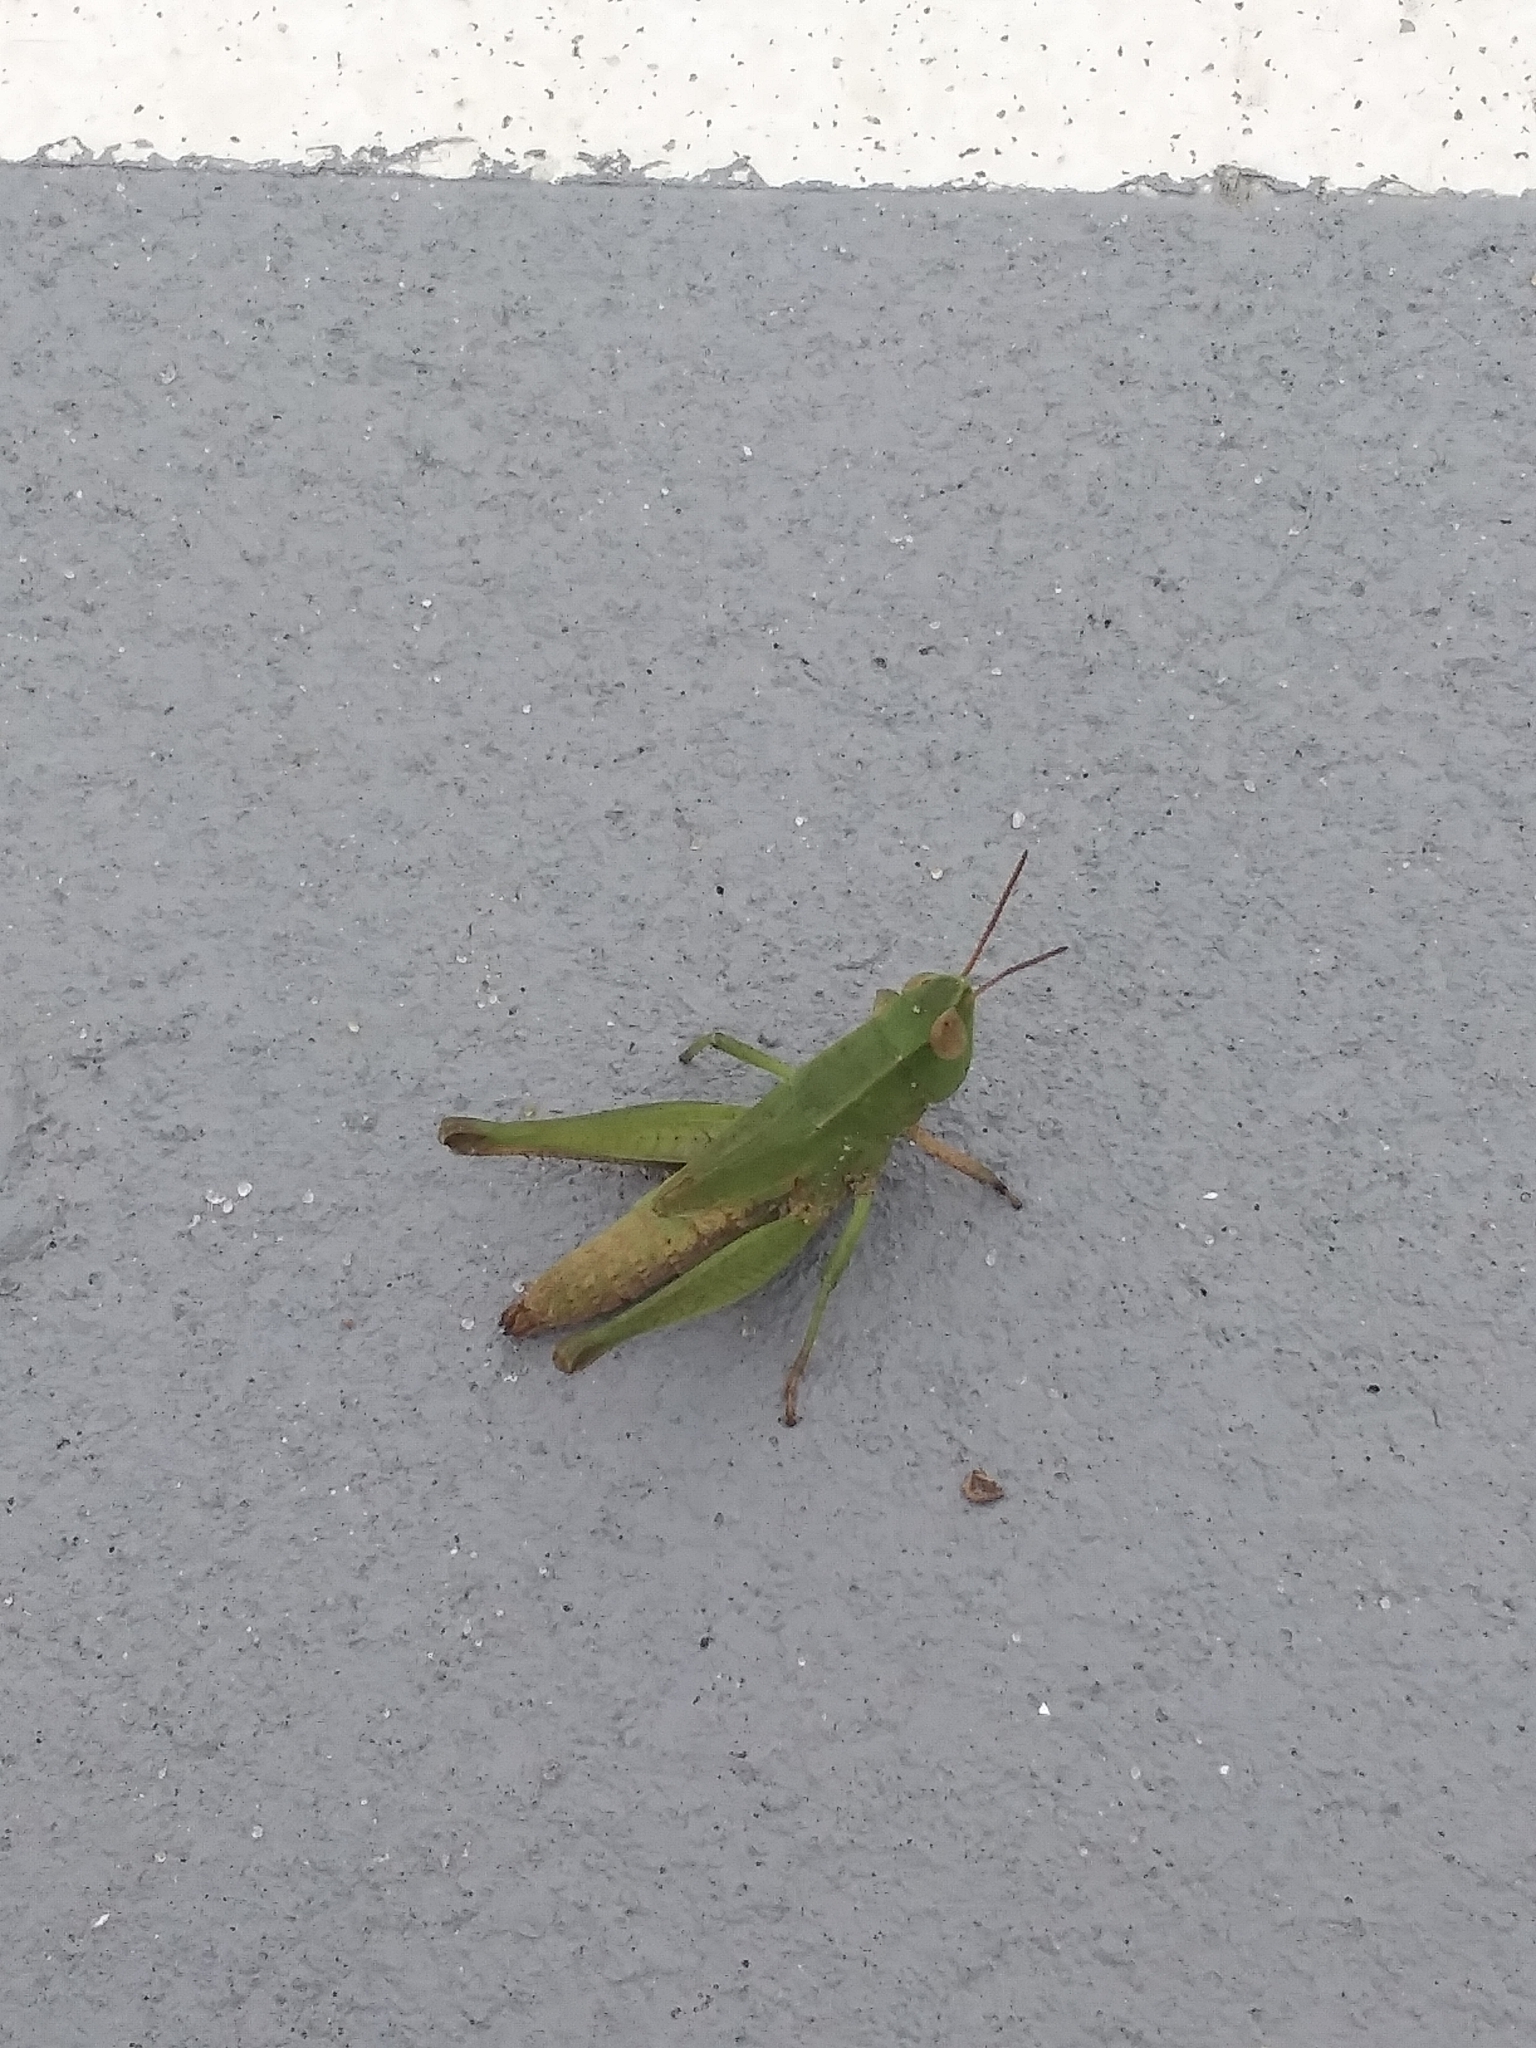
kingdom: Animalia
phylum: Arthropoda
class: Insecta
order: Orthoptera
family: Acrididae
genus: Dichromorpha
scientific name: Dichromorpha viridis
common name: Short-winged green grasshopper
